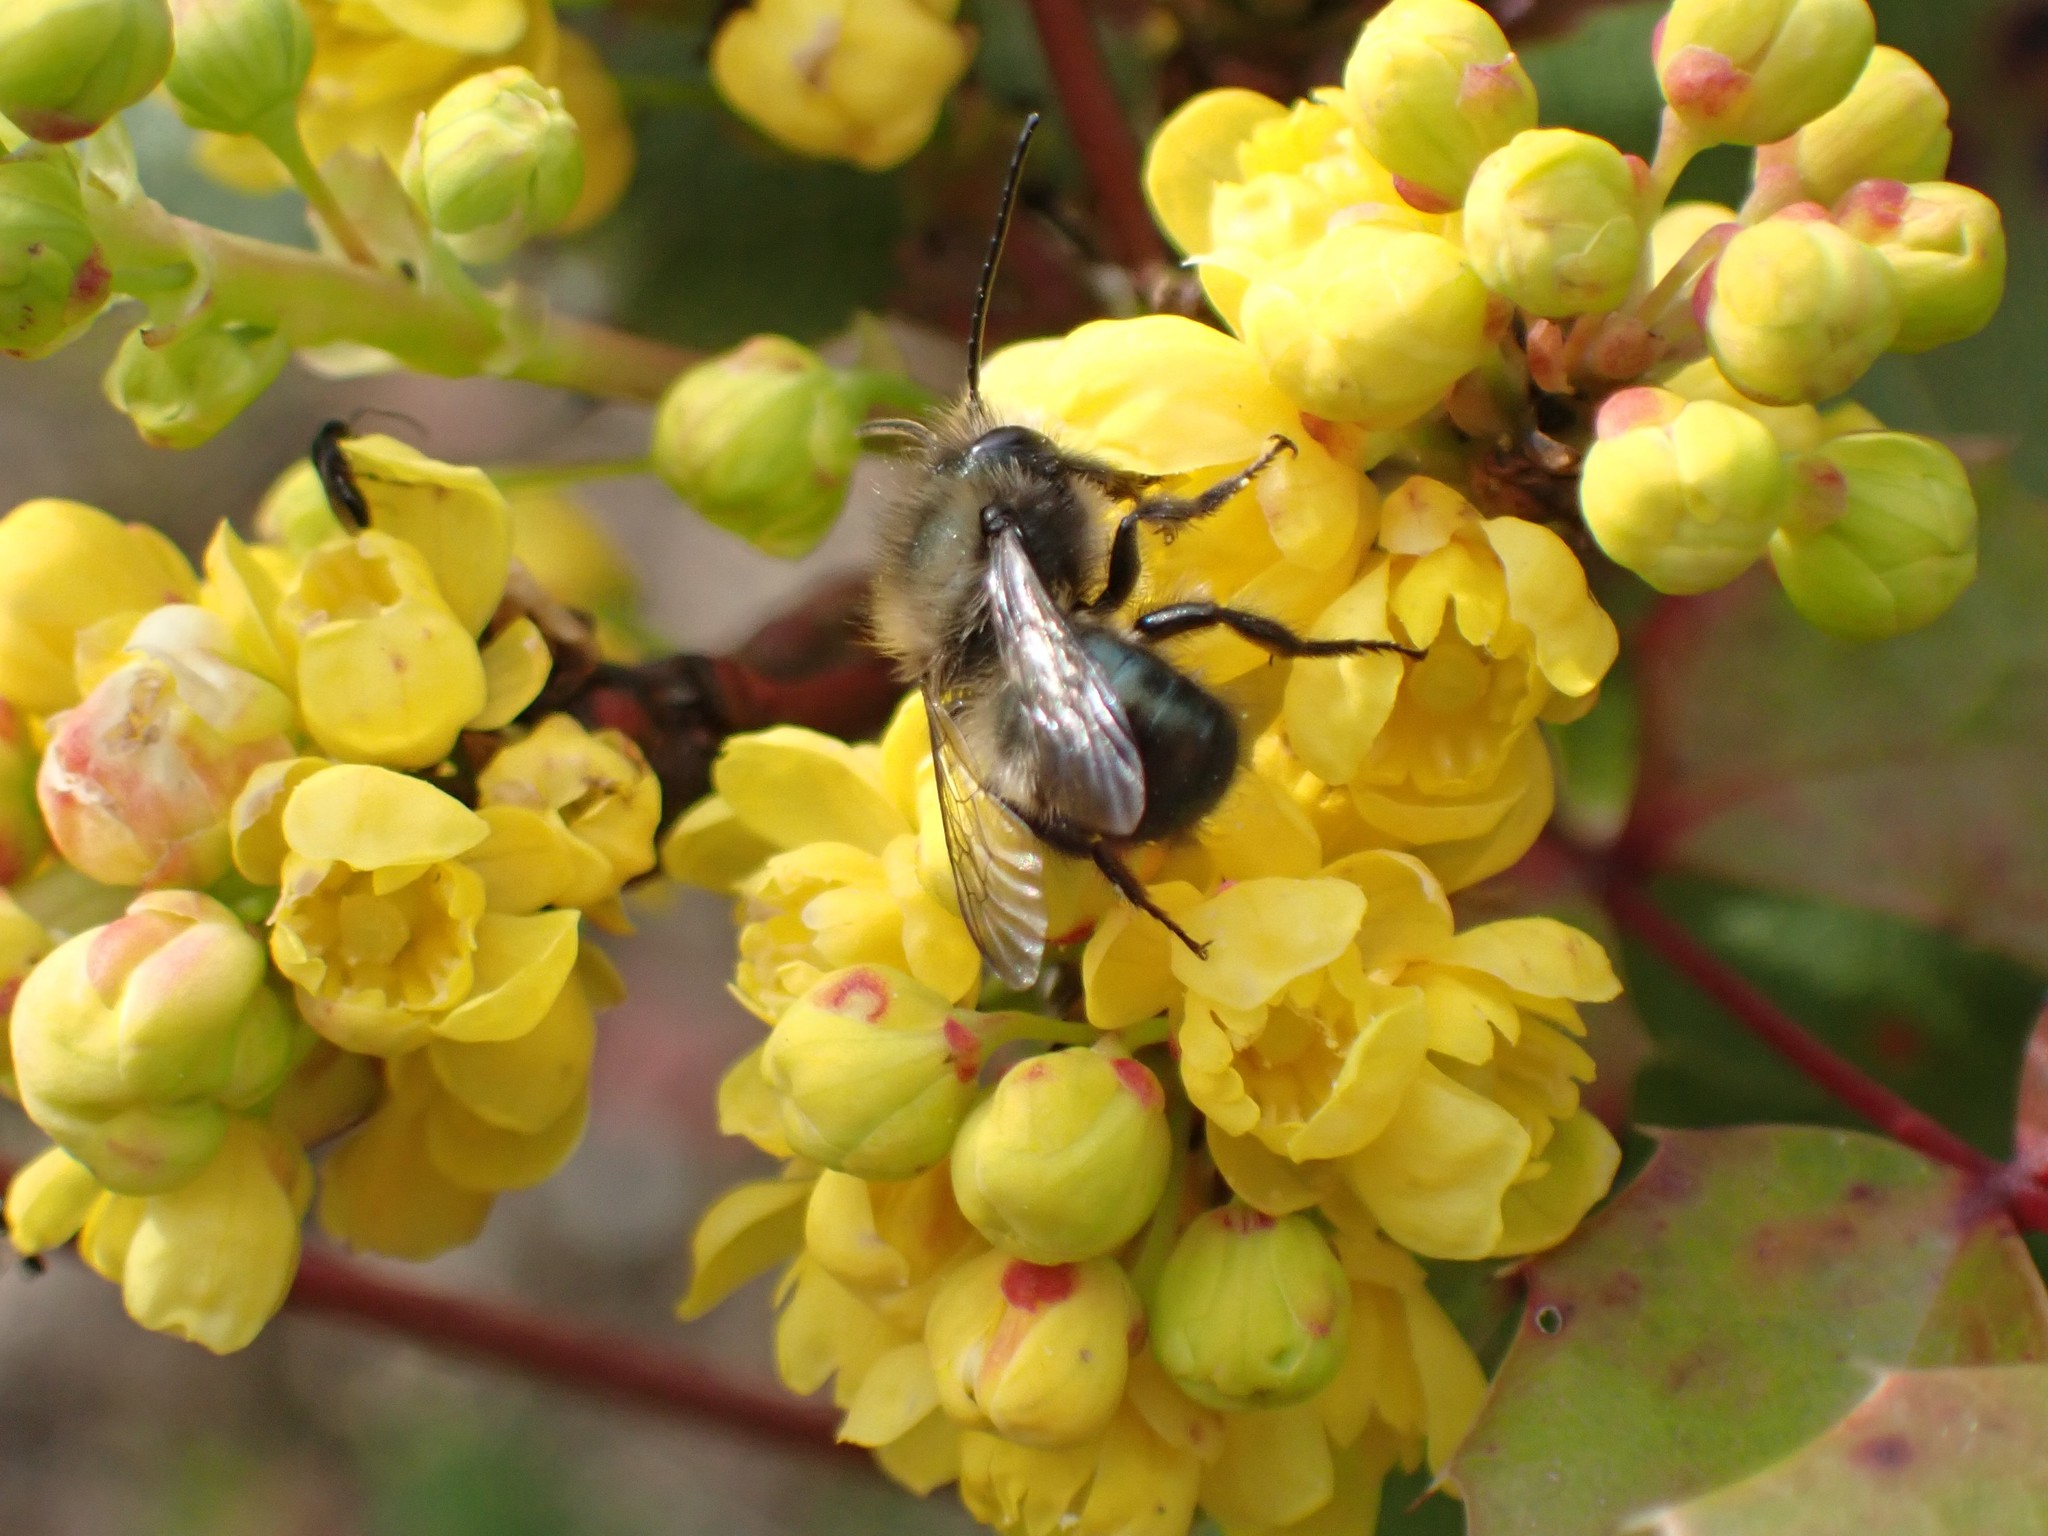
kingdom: Animalia
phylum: Arthropoda
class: Insecta
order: Hymenoptera
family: Megachilidae
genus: Osmia
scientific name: Osmia lignaria
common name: Blue orchard bee
